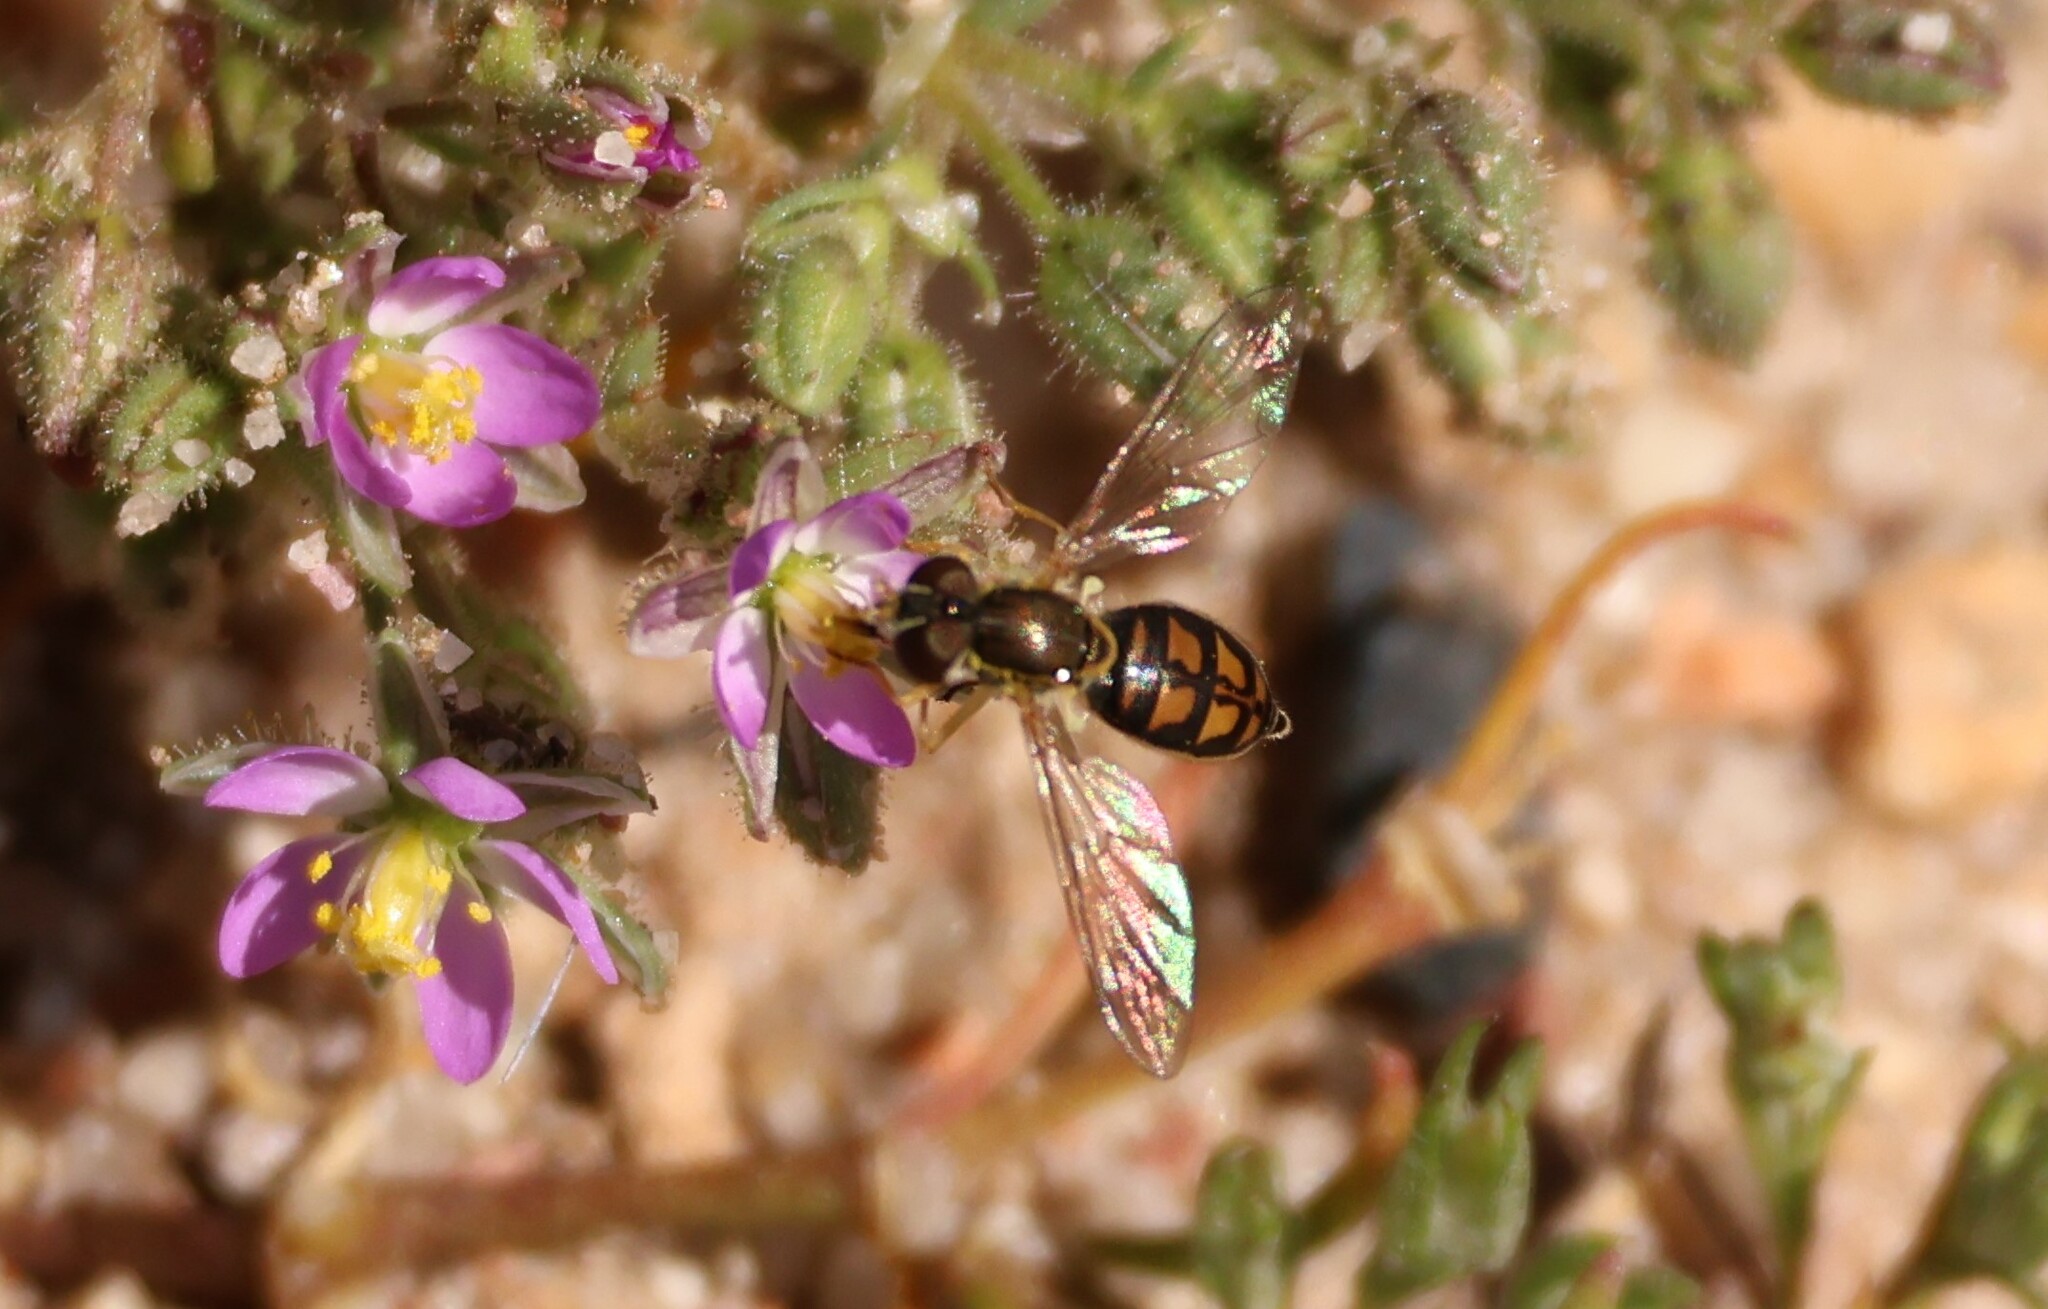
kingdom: Animalia
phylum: Arthropoda
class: Insecta
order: Diptera
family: Syrphidae
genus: Toxomerus
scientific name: Toxomerus marginatus
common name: Syrphid fly
